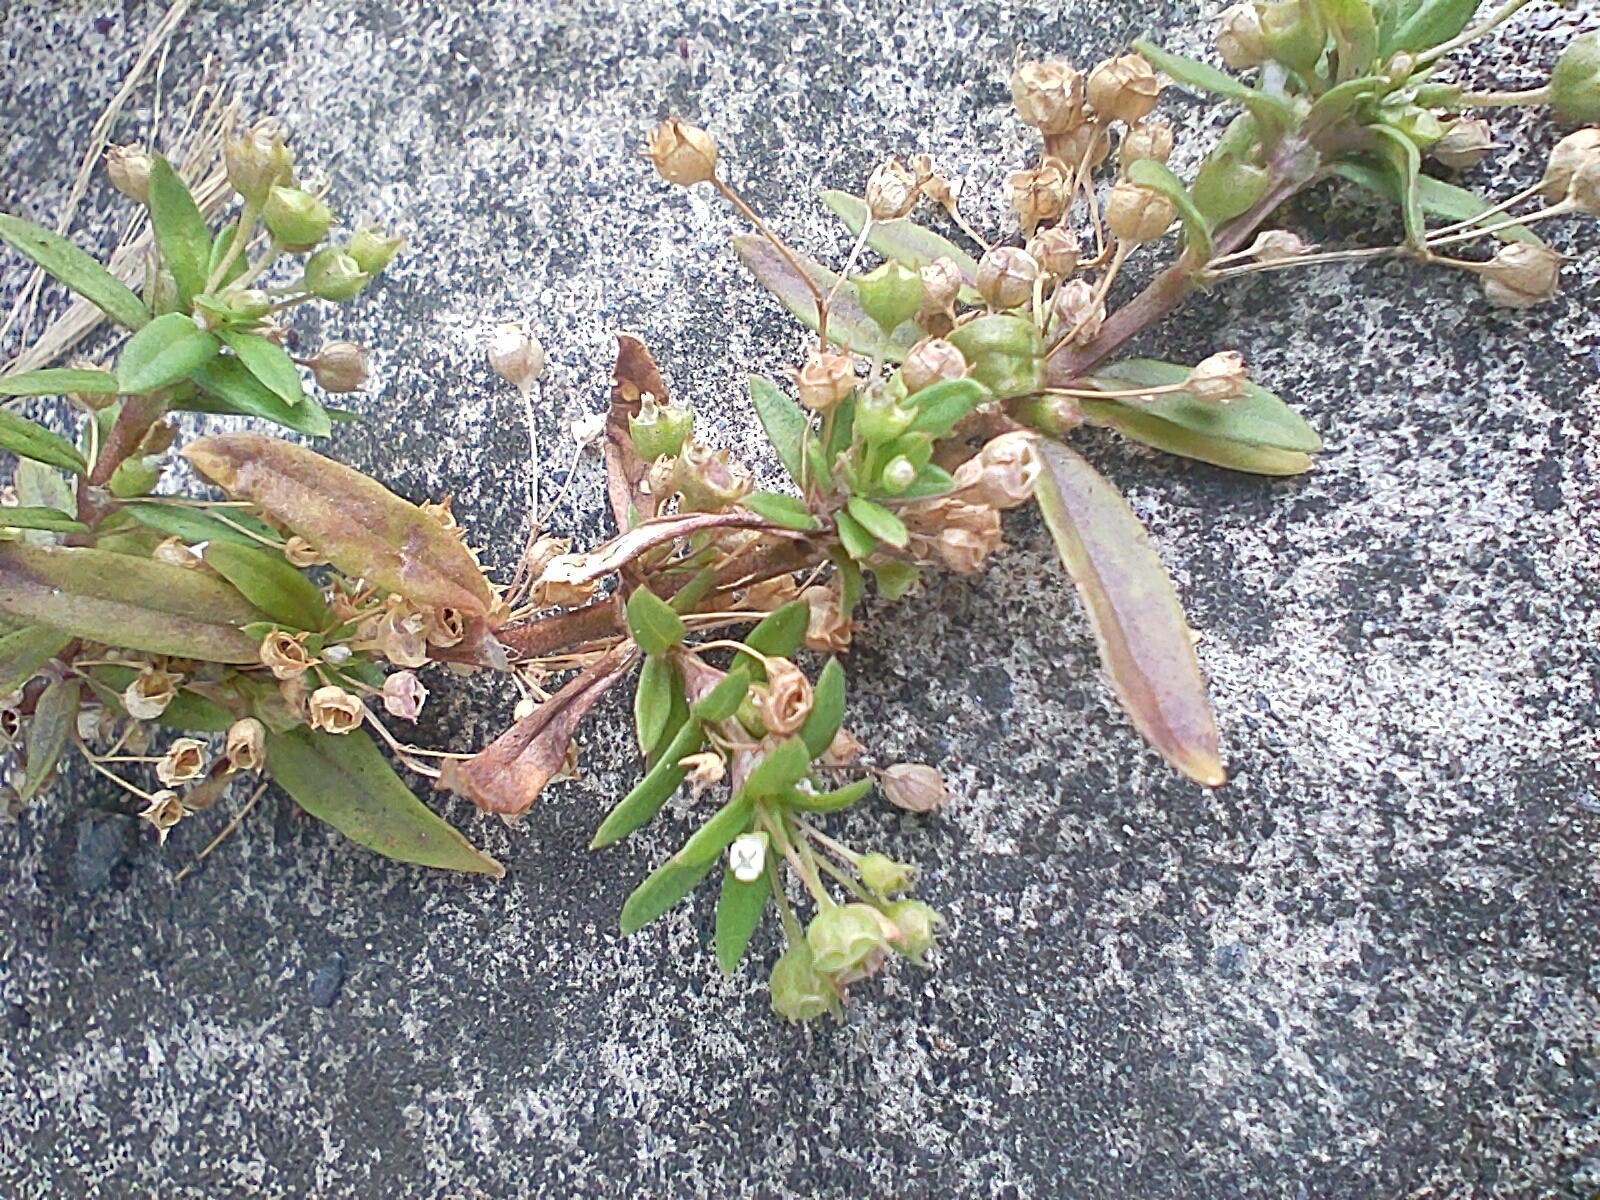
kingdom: Plantae
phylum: Tracheophyta
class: Magnoliopsida
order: Gentianales
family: Rubiaceae
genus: Oldenlandia
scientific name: Oldenlandia corymbosa
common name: Flat-top mille graines
